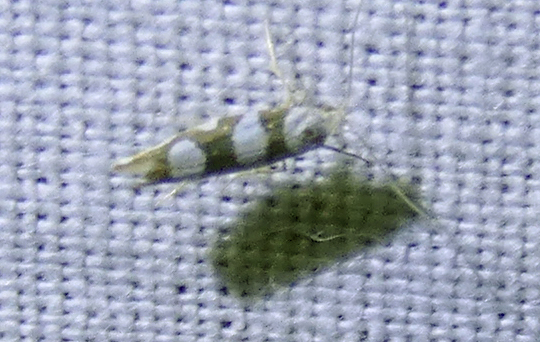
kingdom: Animalia
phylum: Arthropoda
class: Insecta
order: Lepidoptera
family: Argyresthiidae
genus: Argyresthia
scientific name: Argyresthia brockeella
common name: Gold-ribbon argent
